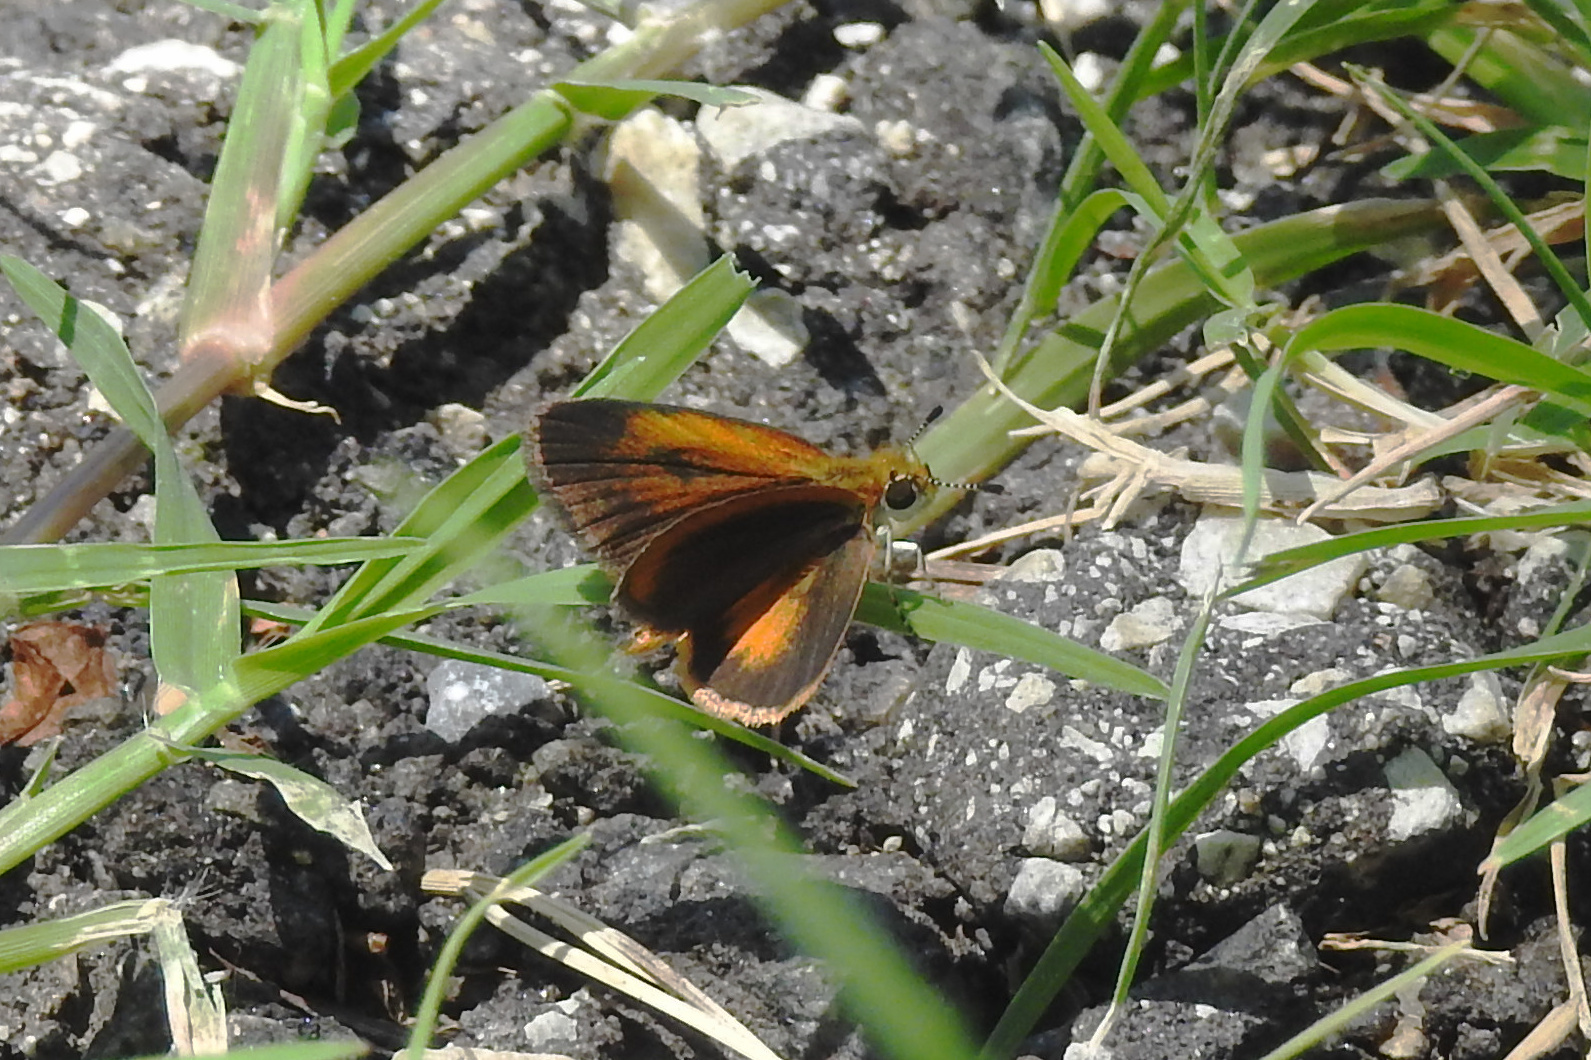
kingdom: Animalia
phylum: Arthropoda
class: Insecta
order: Lepidoptera
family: Hesperiidae
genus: Ancyloxypha
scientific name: Ancyloxypha numitor
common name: Least skipper
